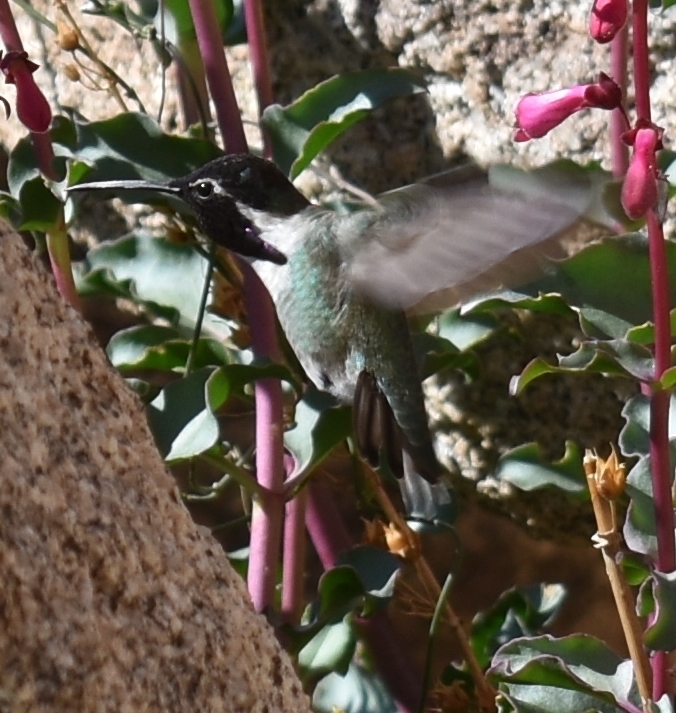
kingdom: Animalia
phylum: Chordata
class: Aves
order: Apodiformes
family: Trochilidae
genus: Calypte
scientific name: Calypte costae
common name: Costa's hummingbird
